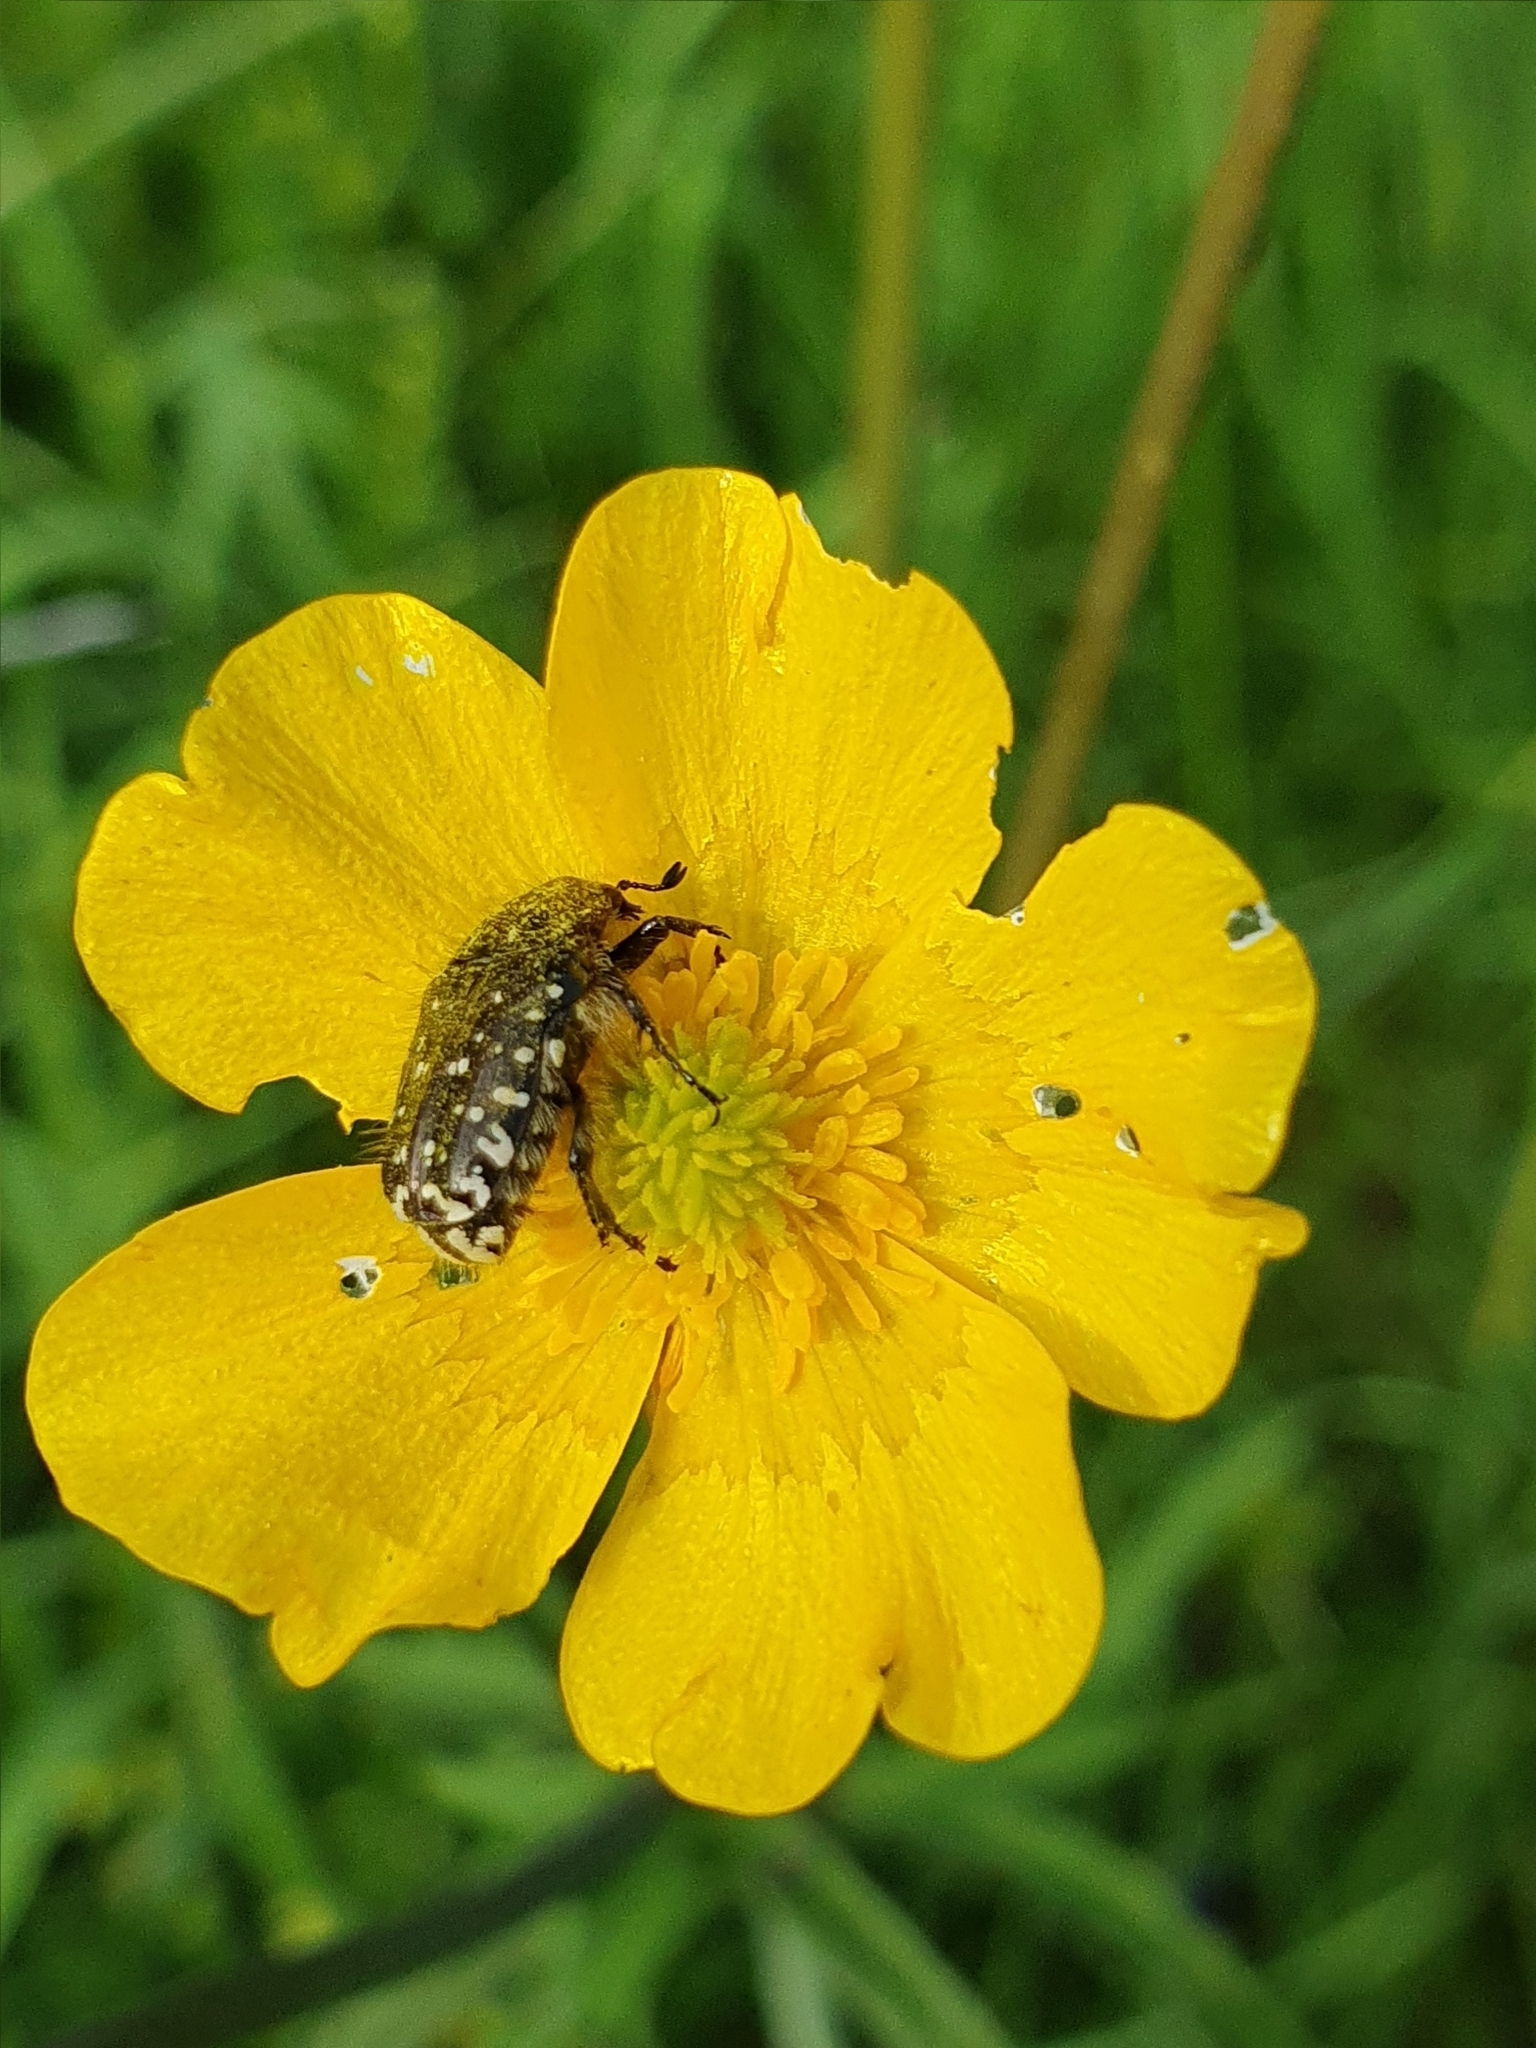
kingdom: Animalia
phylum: Arthropoda
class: Insecta
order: Coleoptera
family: Scarabaeidae
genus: Oxythyrea
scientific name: Oxythyrea funesta
